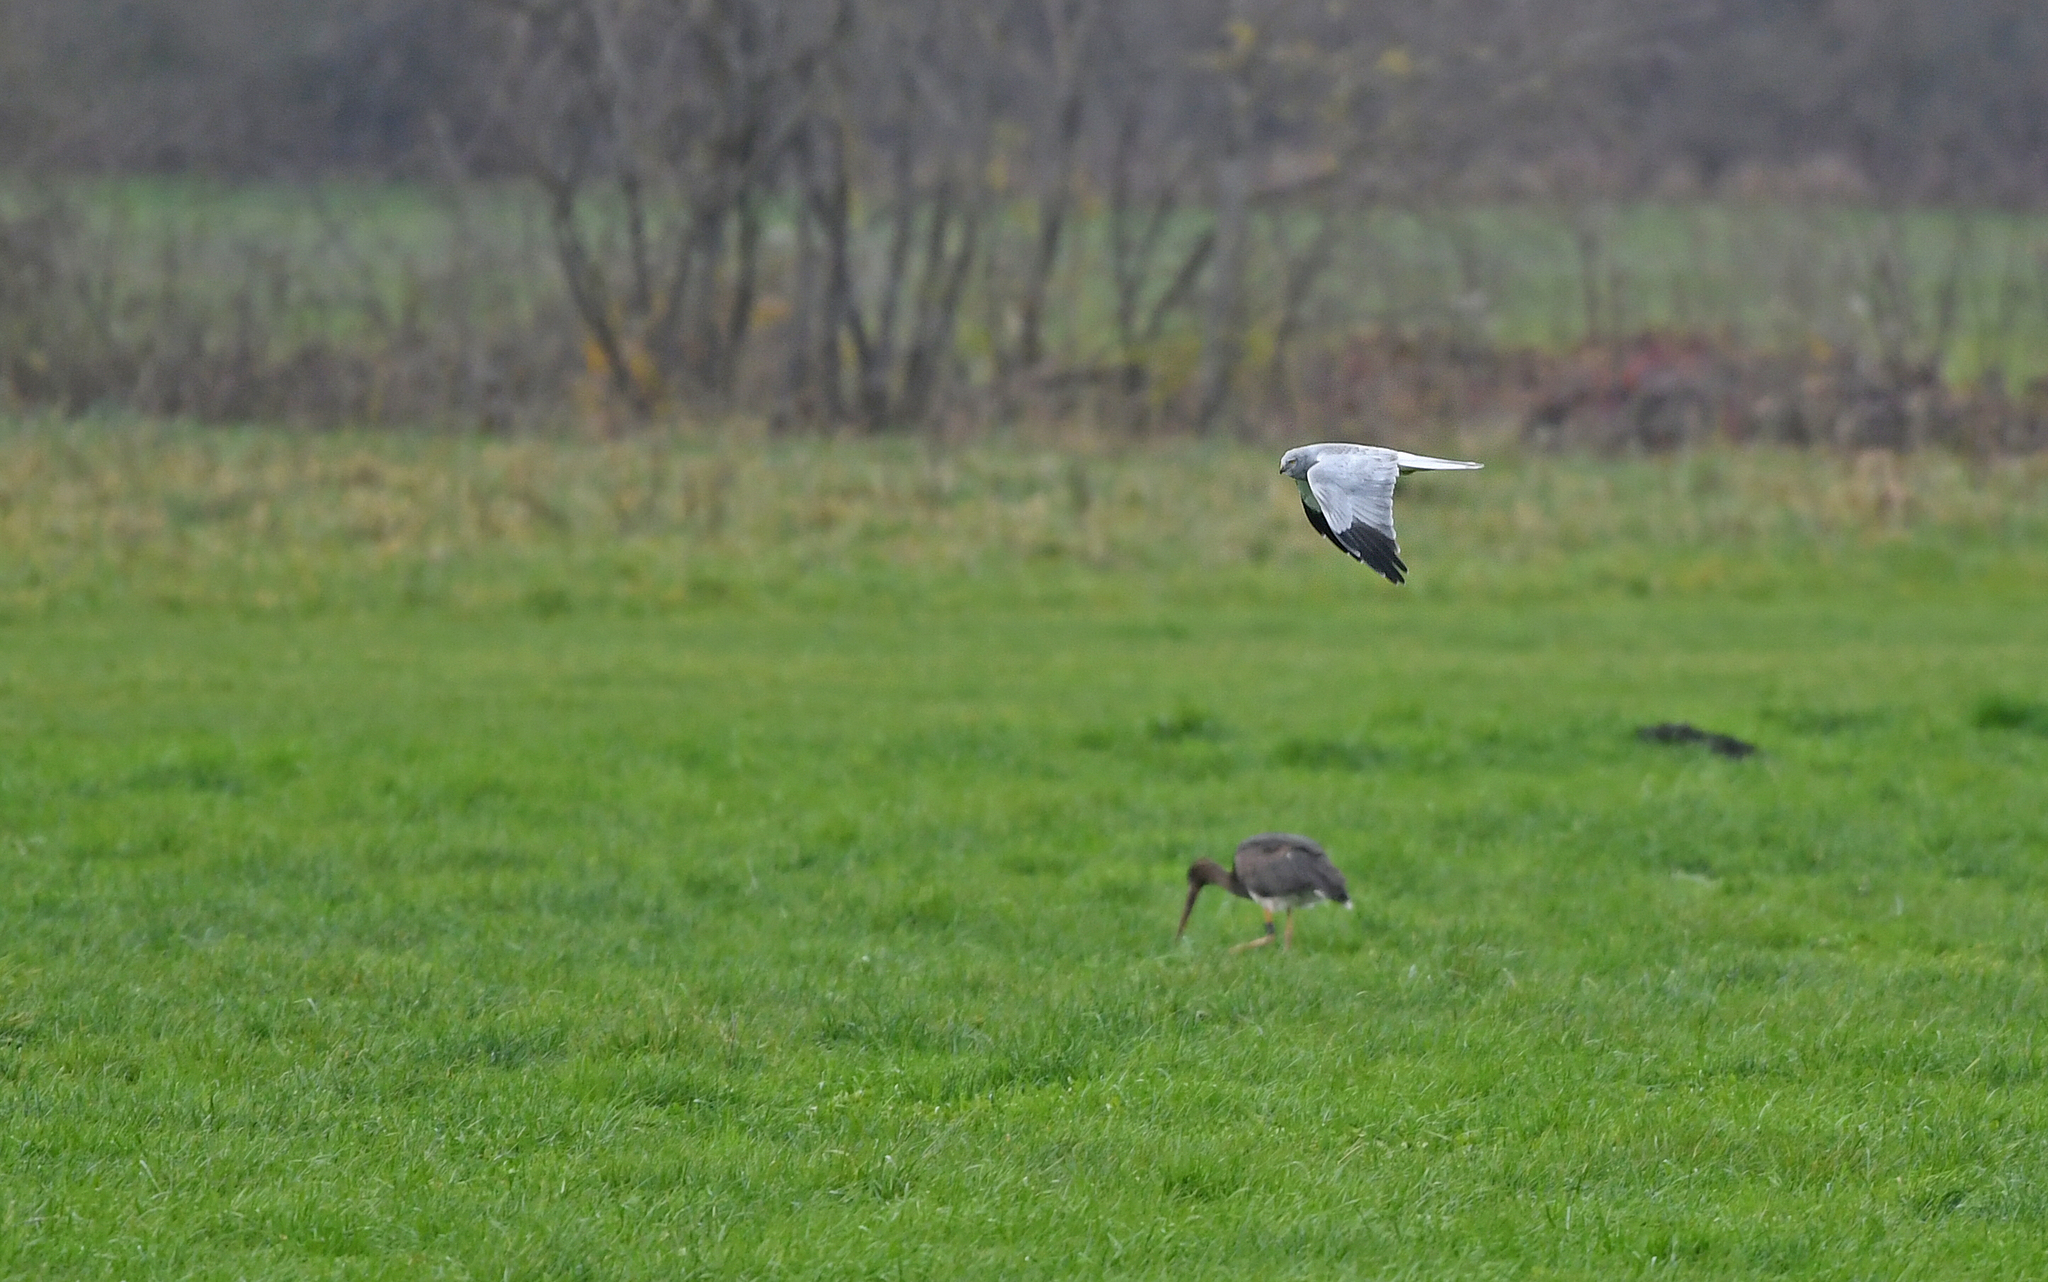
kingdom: Animalia
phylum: Chordata
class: Aves
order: Accipitriformes
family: Accipitridae
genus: Circus
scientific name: Circus cyaneus
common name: Hen harrier
